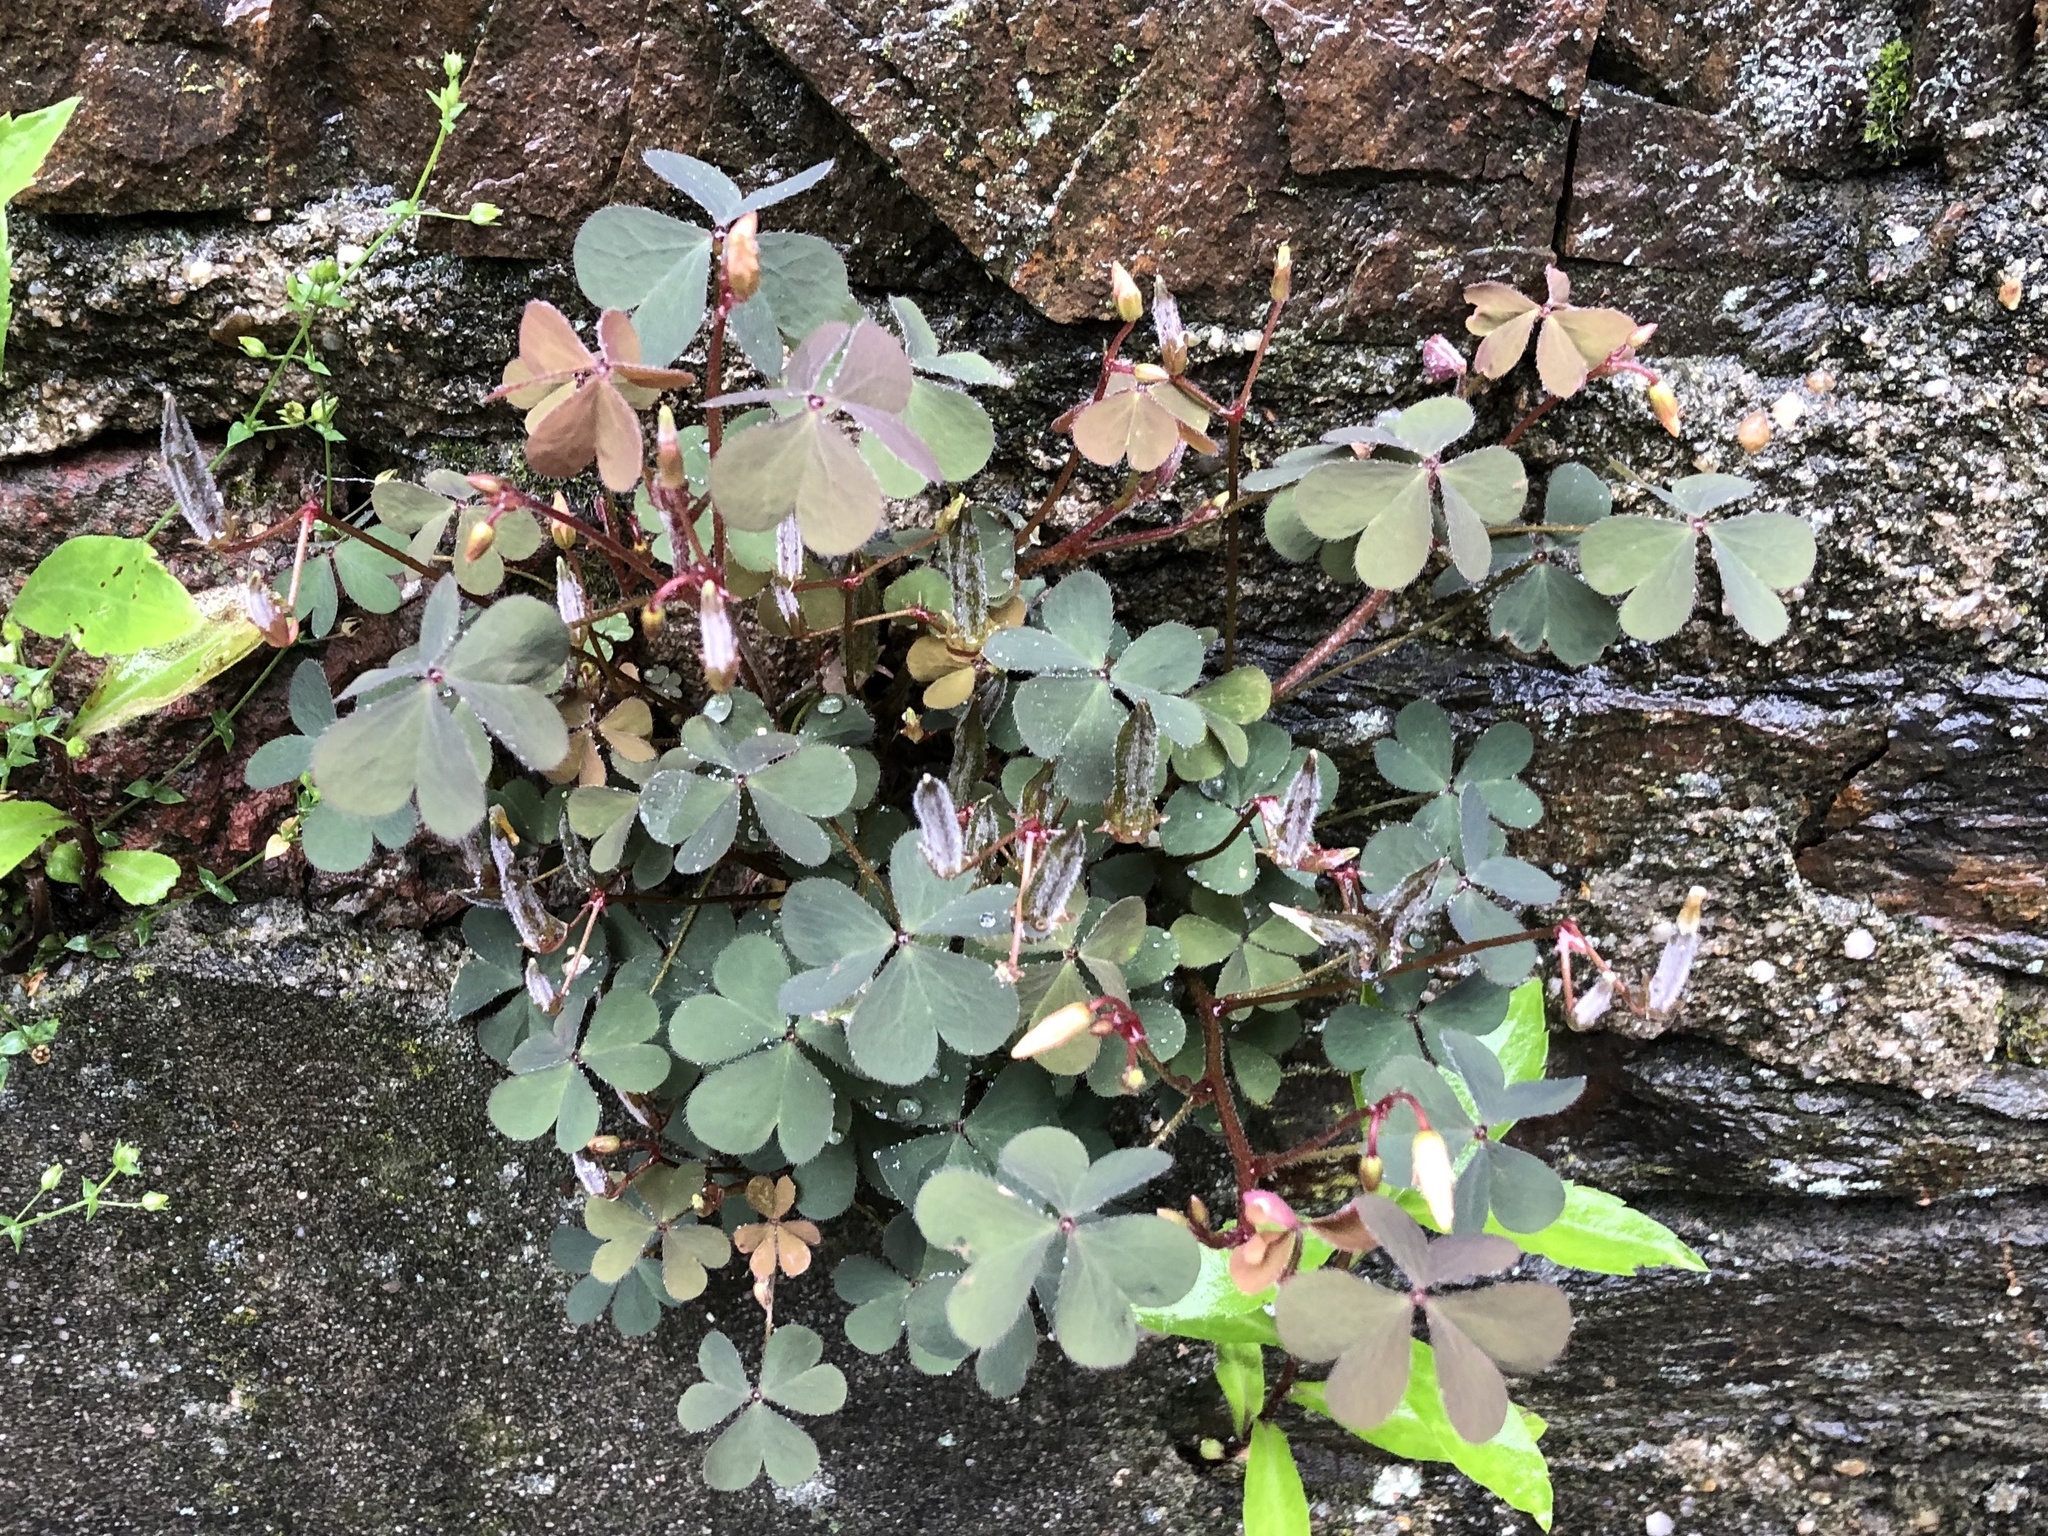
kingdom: Plantae
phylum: Tracheophyta
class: Magnoliopsida
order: Oxalidales
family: Oxalidaceae
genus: Oxalis
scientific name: Oxalis corniculata
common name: Procumbent yellow-sorrel
